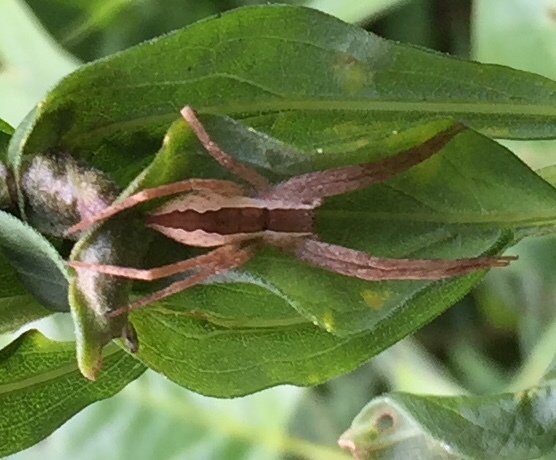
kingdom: Animalia
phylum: Arthropoda
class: Arachnida
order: Araneae
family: Pisauridae
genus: Pisaurina
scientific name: Pisaurina mira
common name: American nursery web spider
